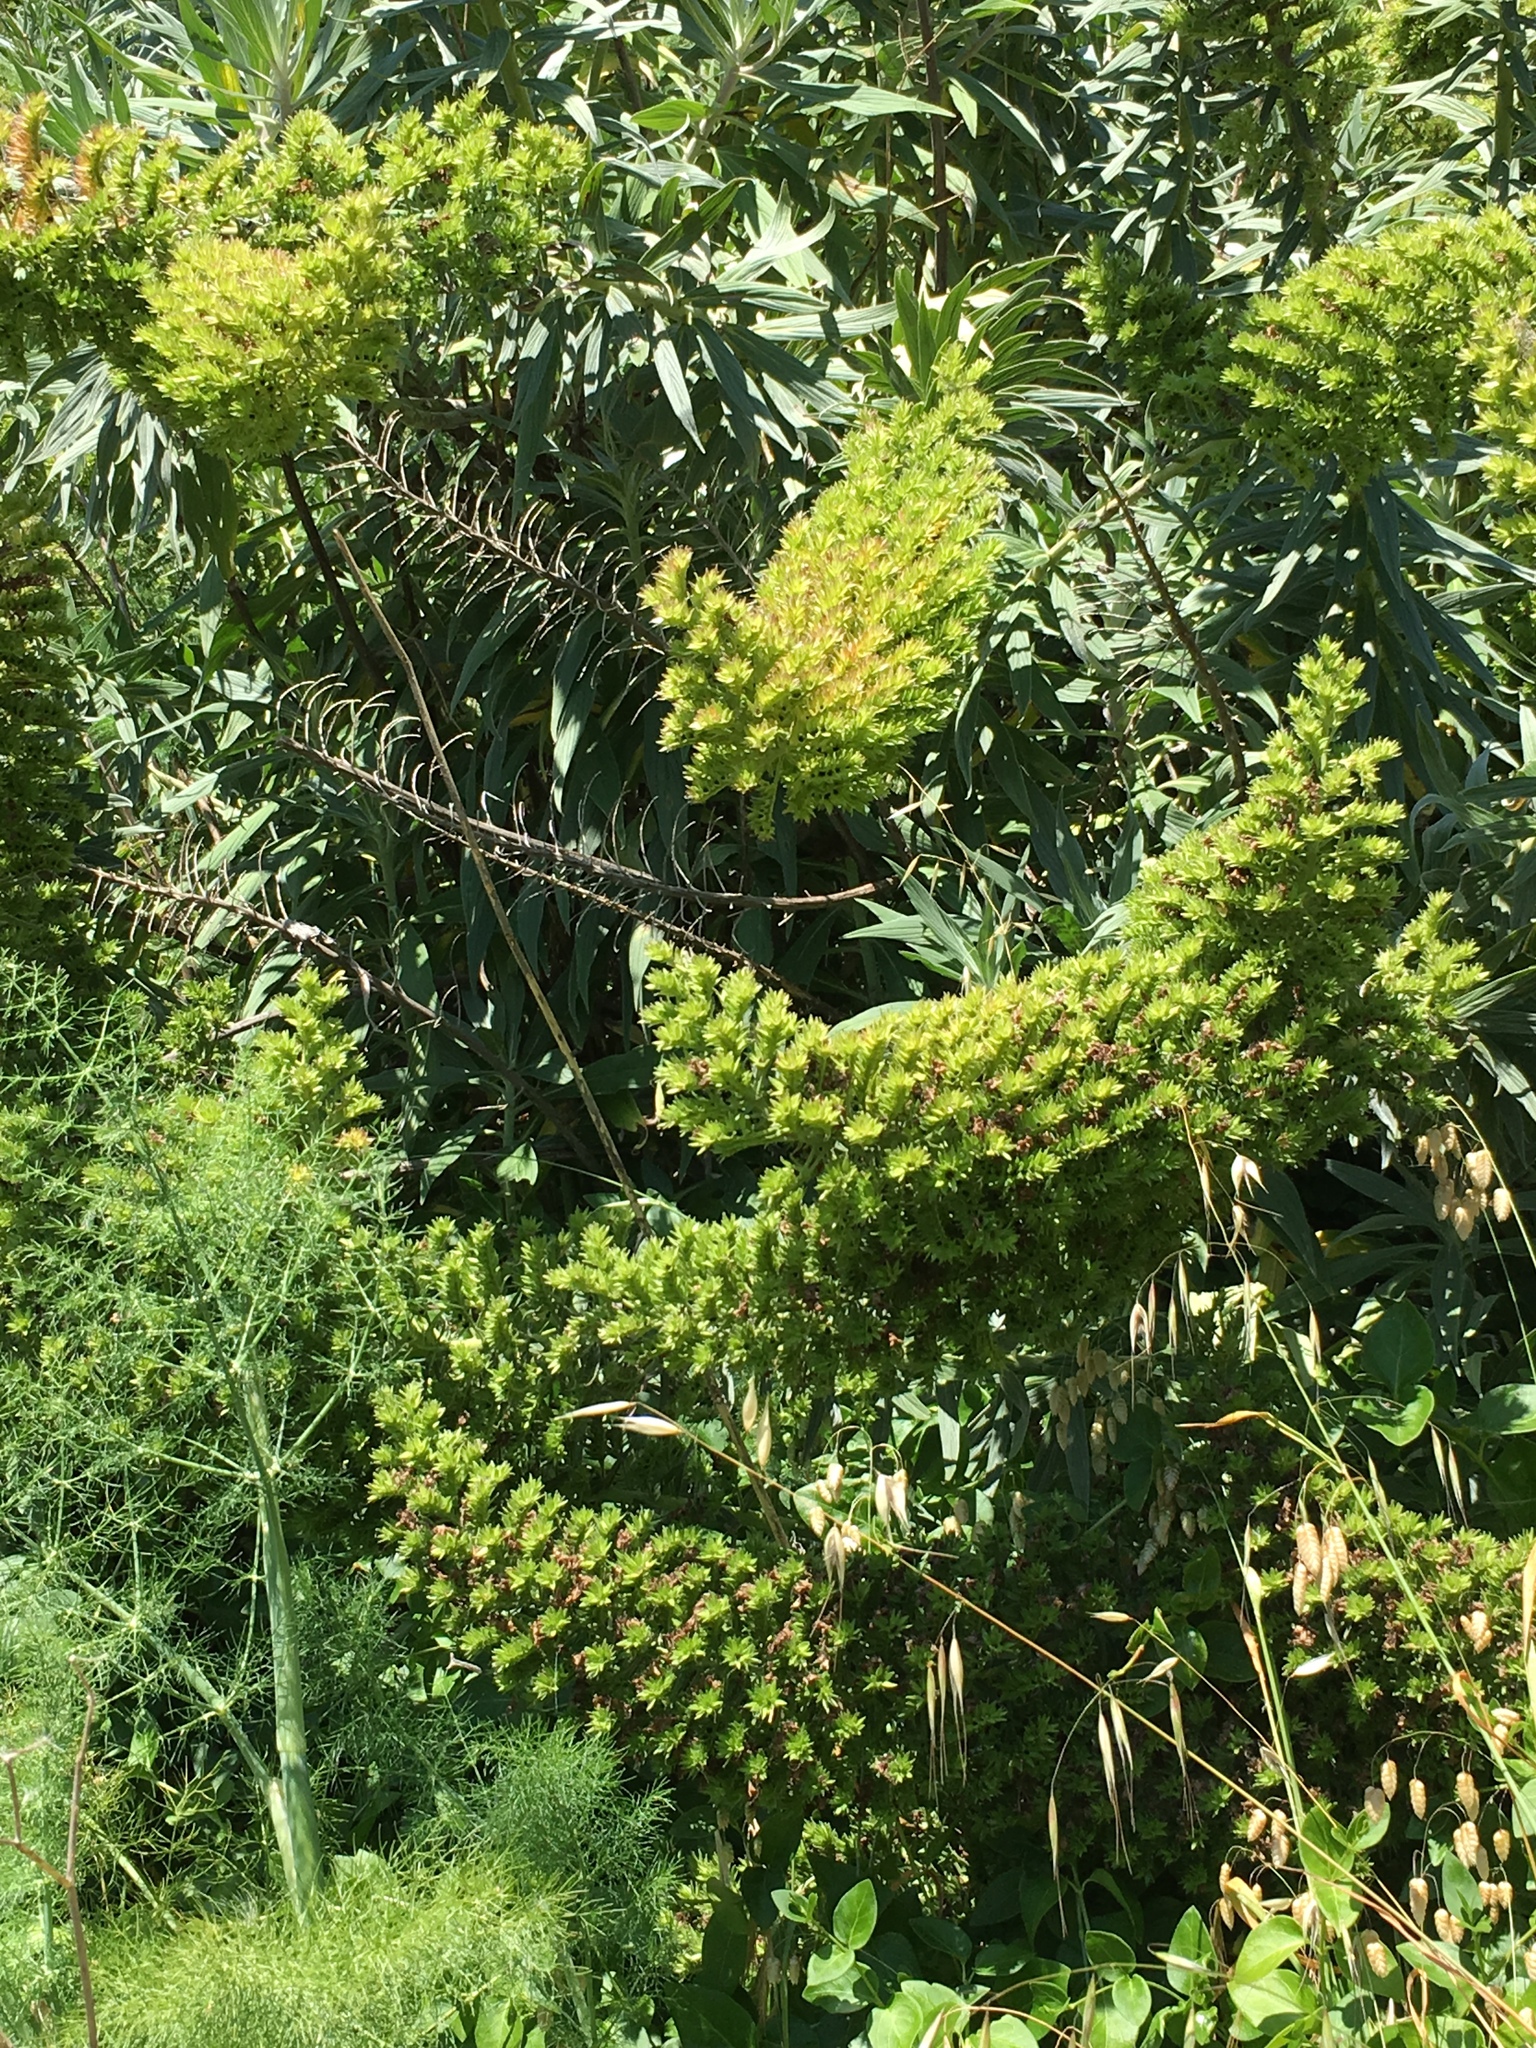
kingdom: Plantae
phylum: Tracheophyta
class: Magnoliopsida
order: Boraginales
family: Boraginaceae
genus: Echium
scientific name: Echium candicans
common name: Pride of madeira
